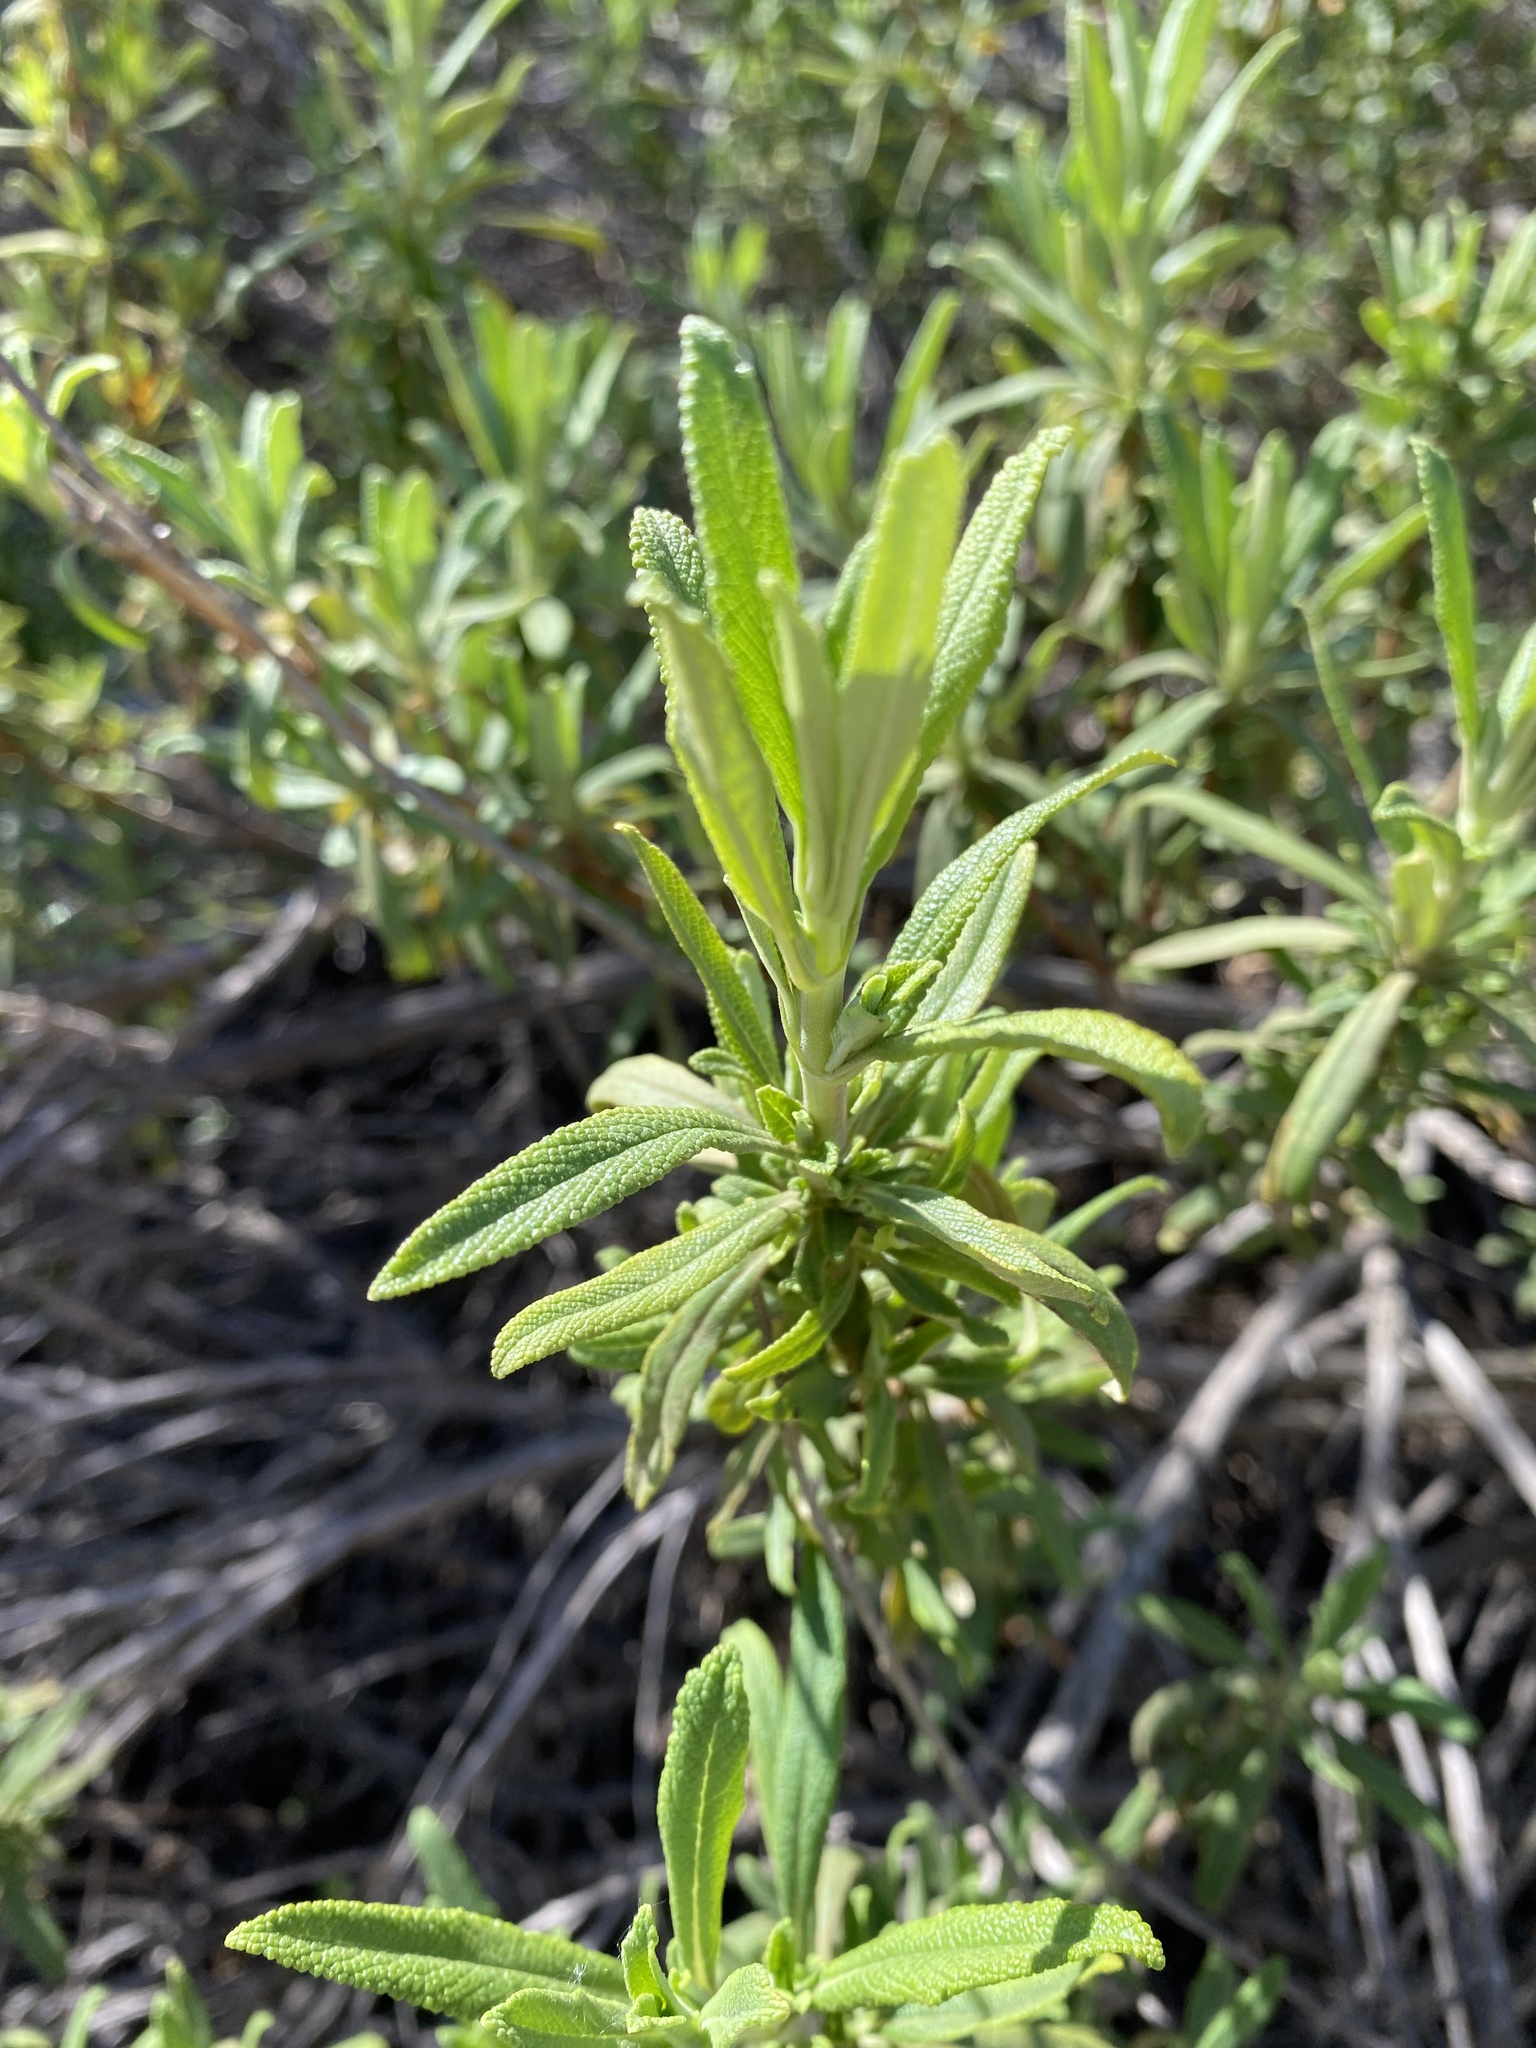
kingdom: Plantae
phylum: Tracheophyta
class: Magnoliopsida
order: Lamiales
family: Lamiaceae
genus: Salvia
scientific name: Salvia mellifera
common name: Black sage
